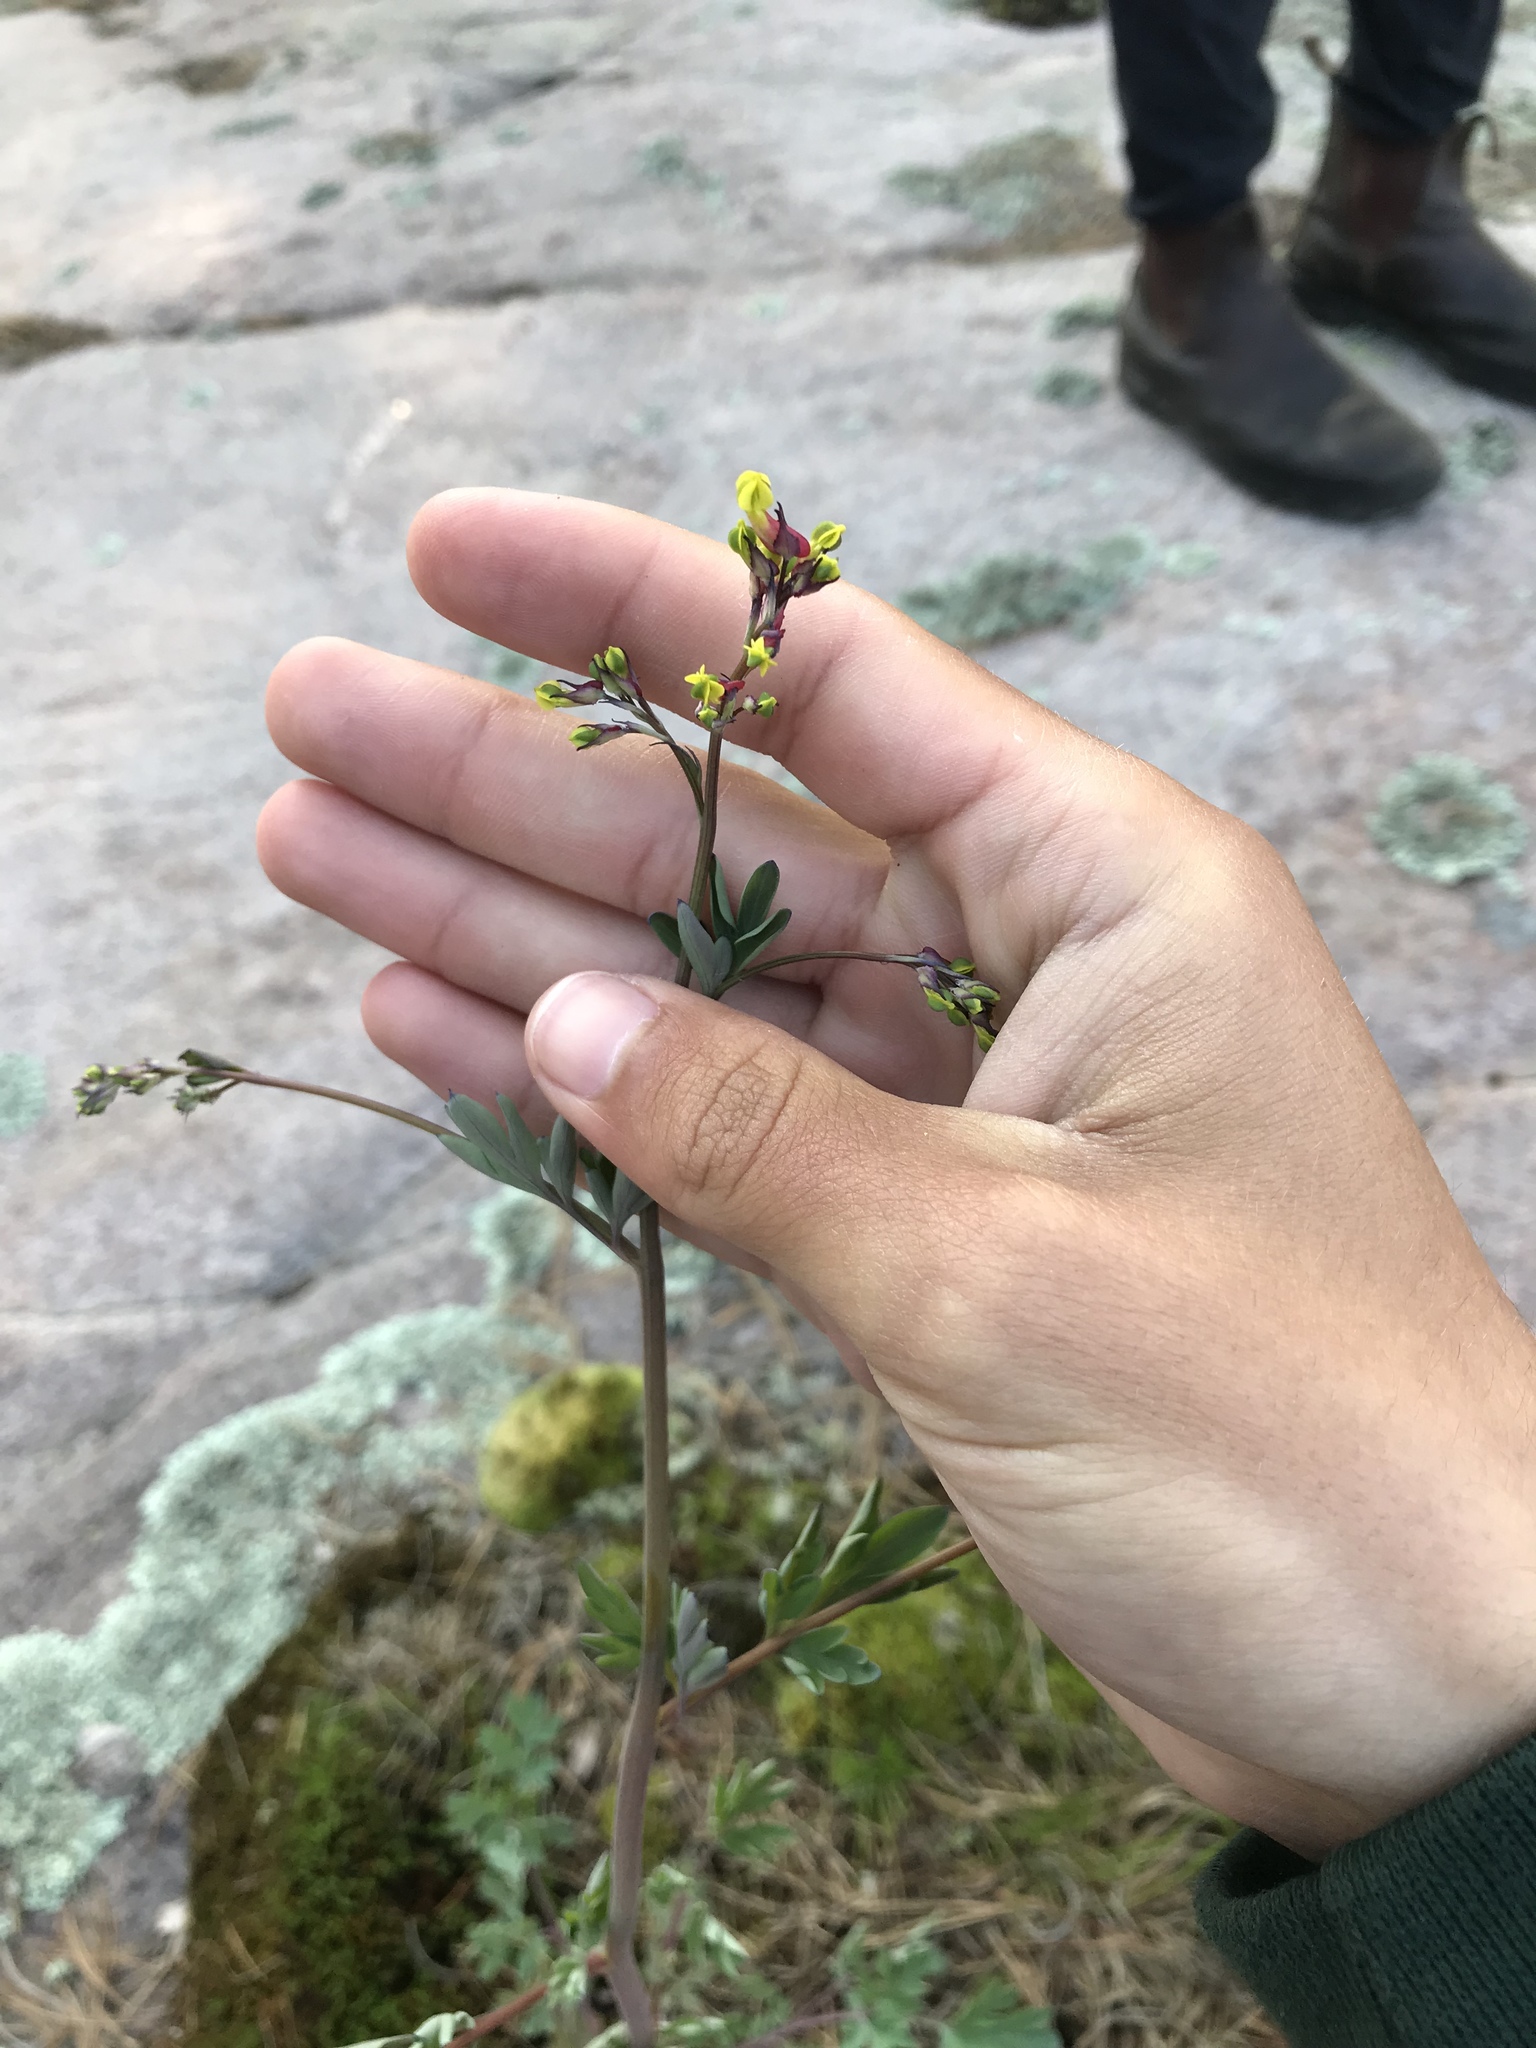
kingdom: Plantae
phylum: Tracheophyta
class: Magnoliopsida
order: Ranunculales
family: Papaveraceae
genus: Capnoides
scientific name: Capnoides sempervirens
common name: Rock harlequin
